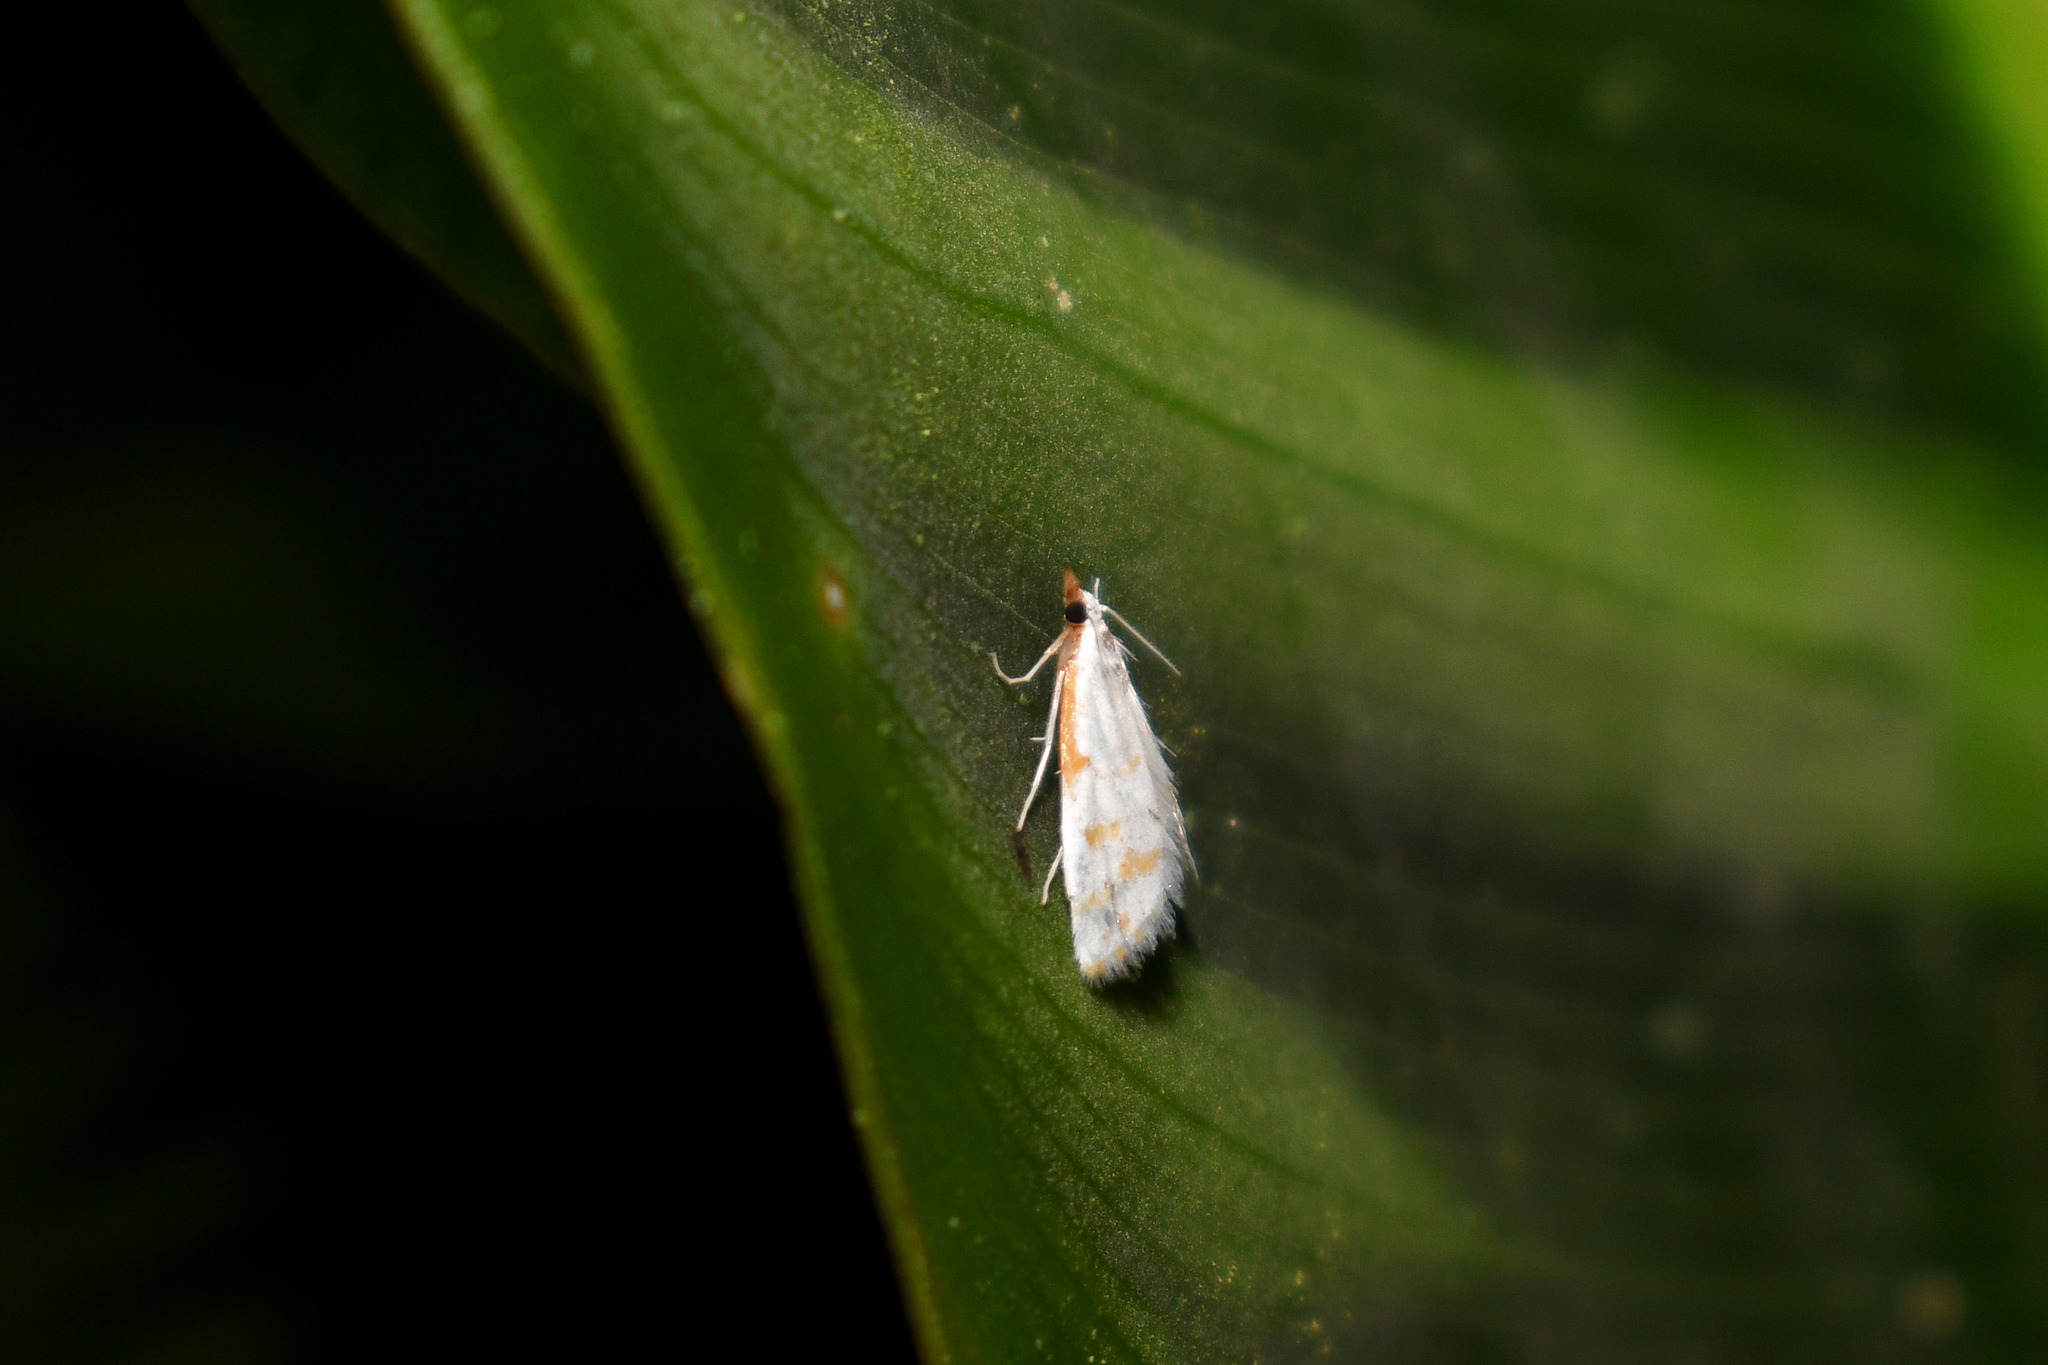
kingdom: Animalia
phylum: Arthropoda
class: Insecta
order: Lepidoptera
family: Crambidae
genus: Leptosteges
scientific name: Leptosteges
